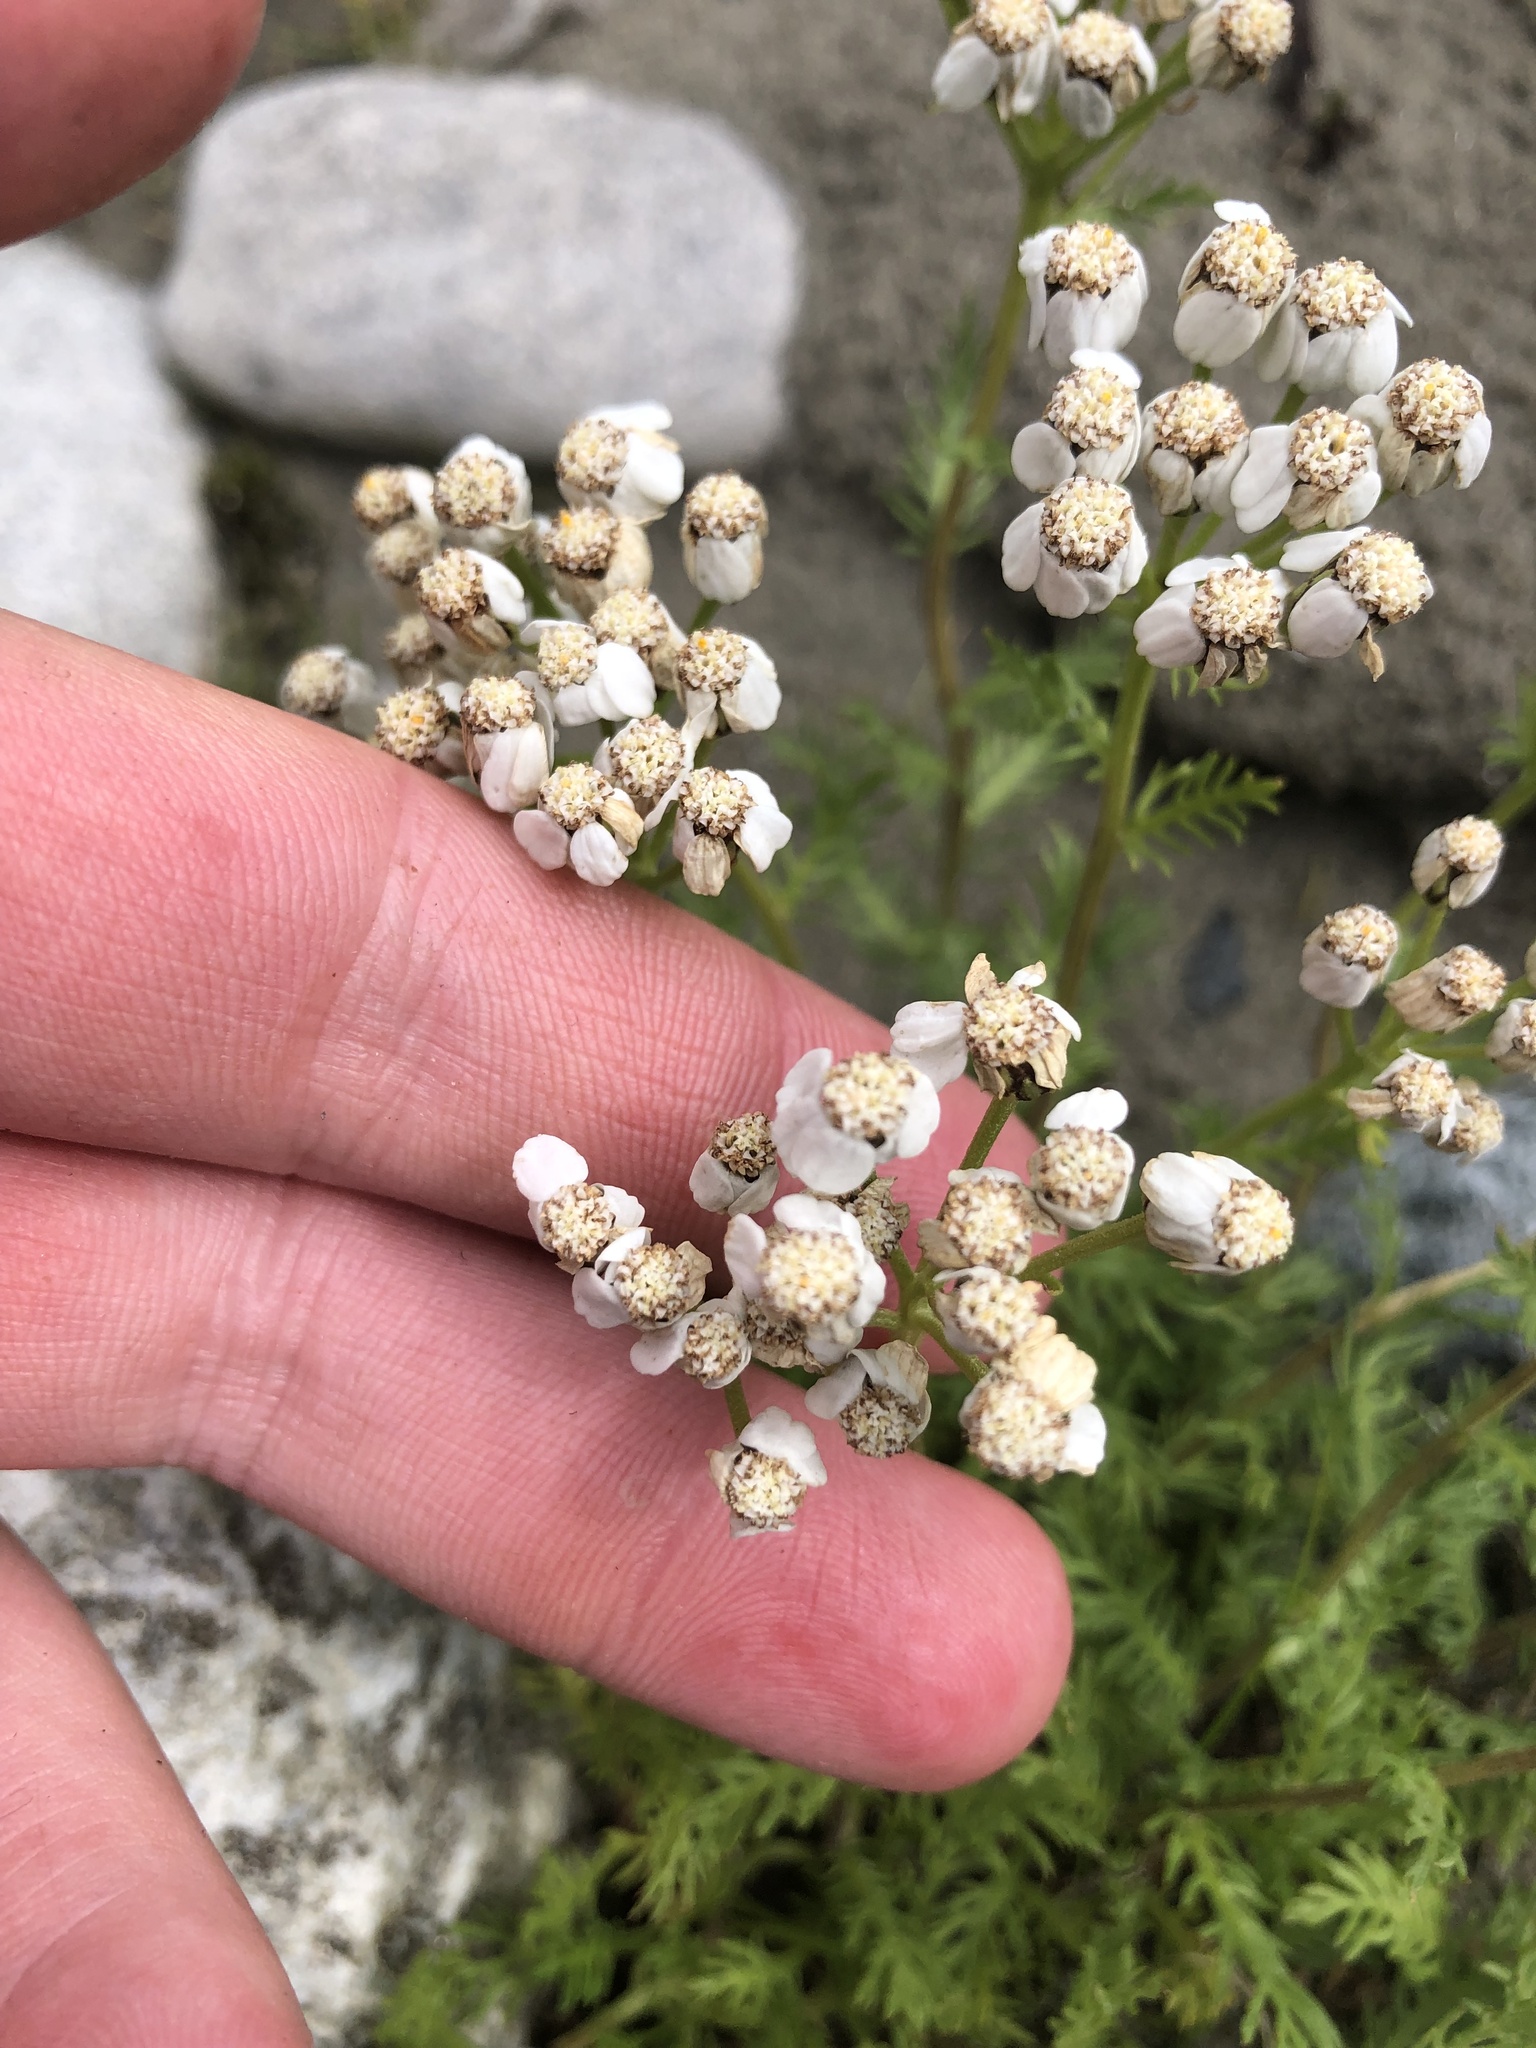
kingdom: Plantae
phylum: Tracheophyta
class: Magnoliopsida
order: Asterales
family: Asteraceae
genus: Achillea
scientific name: Achillea erba-rotta
